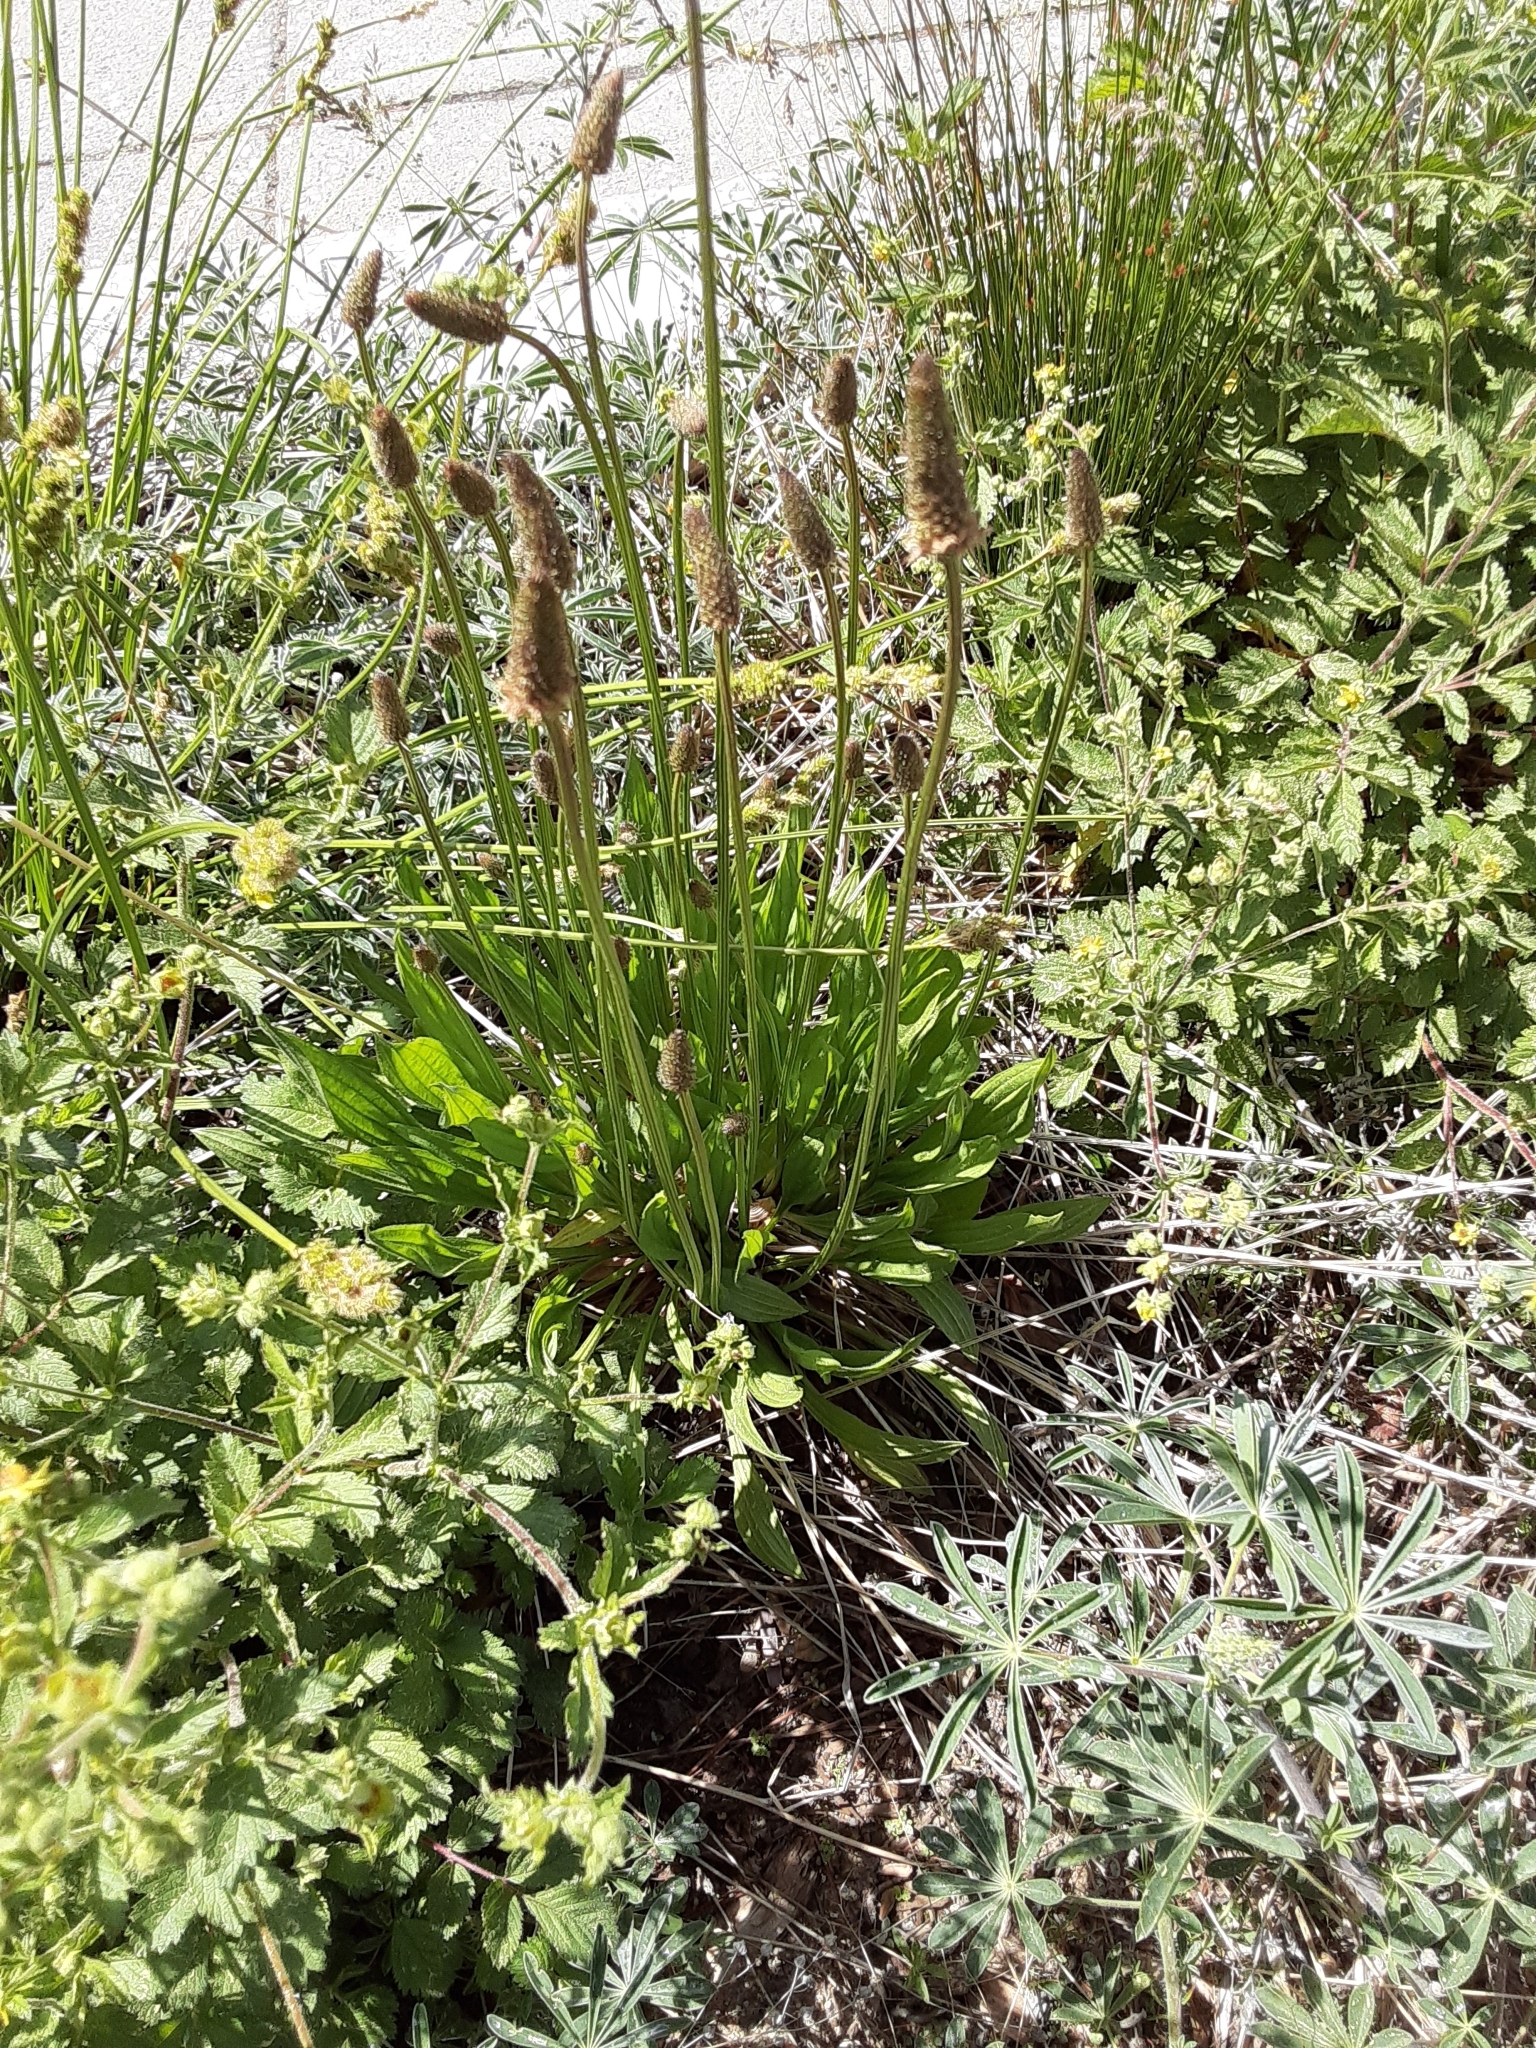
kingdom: Plantae
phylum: Tracheophyta
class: Magnoliopsida
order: Lamiales
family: Plantaginaceae
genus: Plantago
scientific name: Plantago lanceolata
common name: Ribwort plantain
